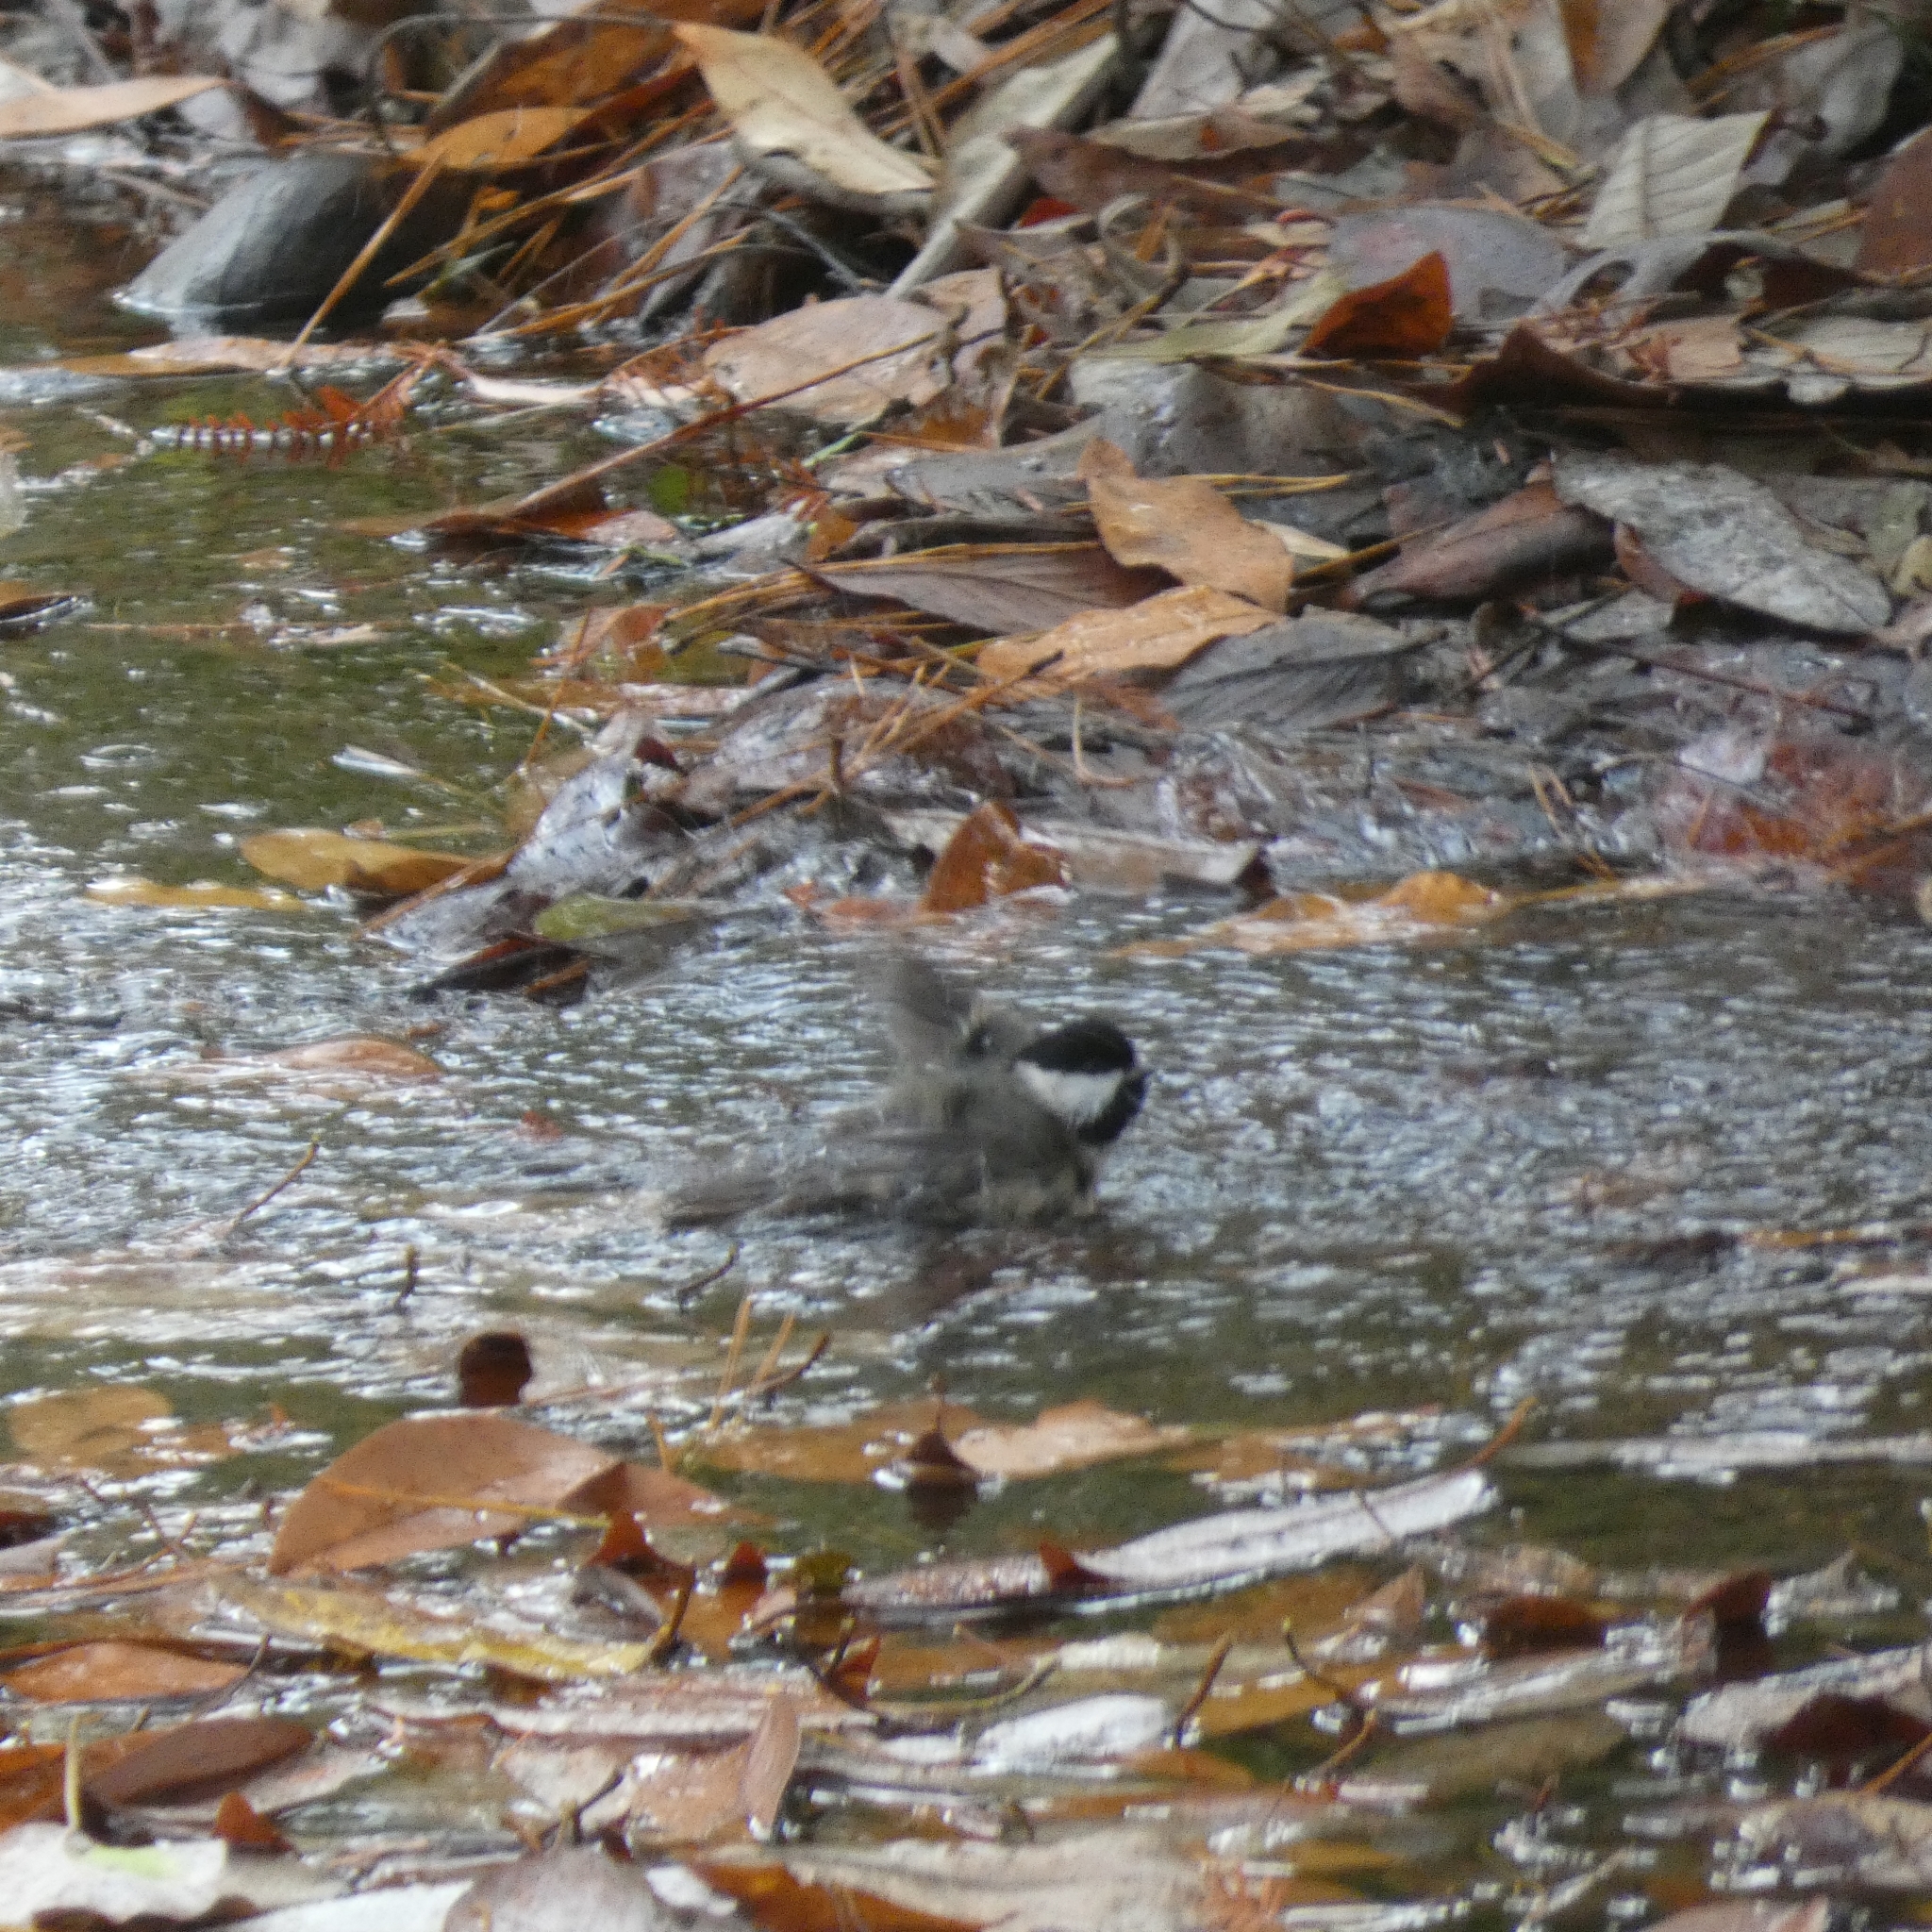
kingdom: Animalia
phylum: Chordata
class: Aves
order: Passeriformes
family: Paridae
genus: Poecile
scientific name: Poecile carolinensis
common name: Carolina chickadee
